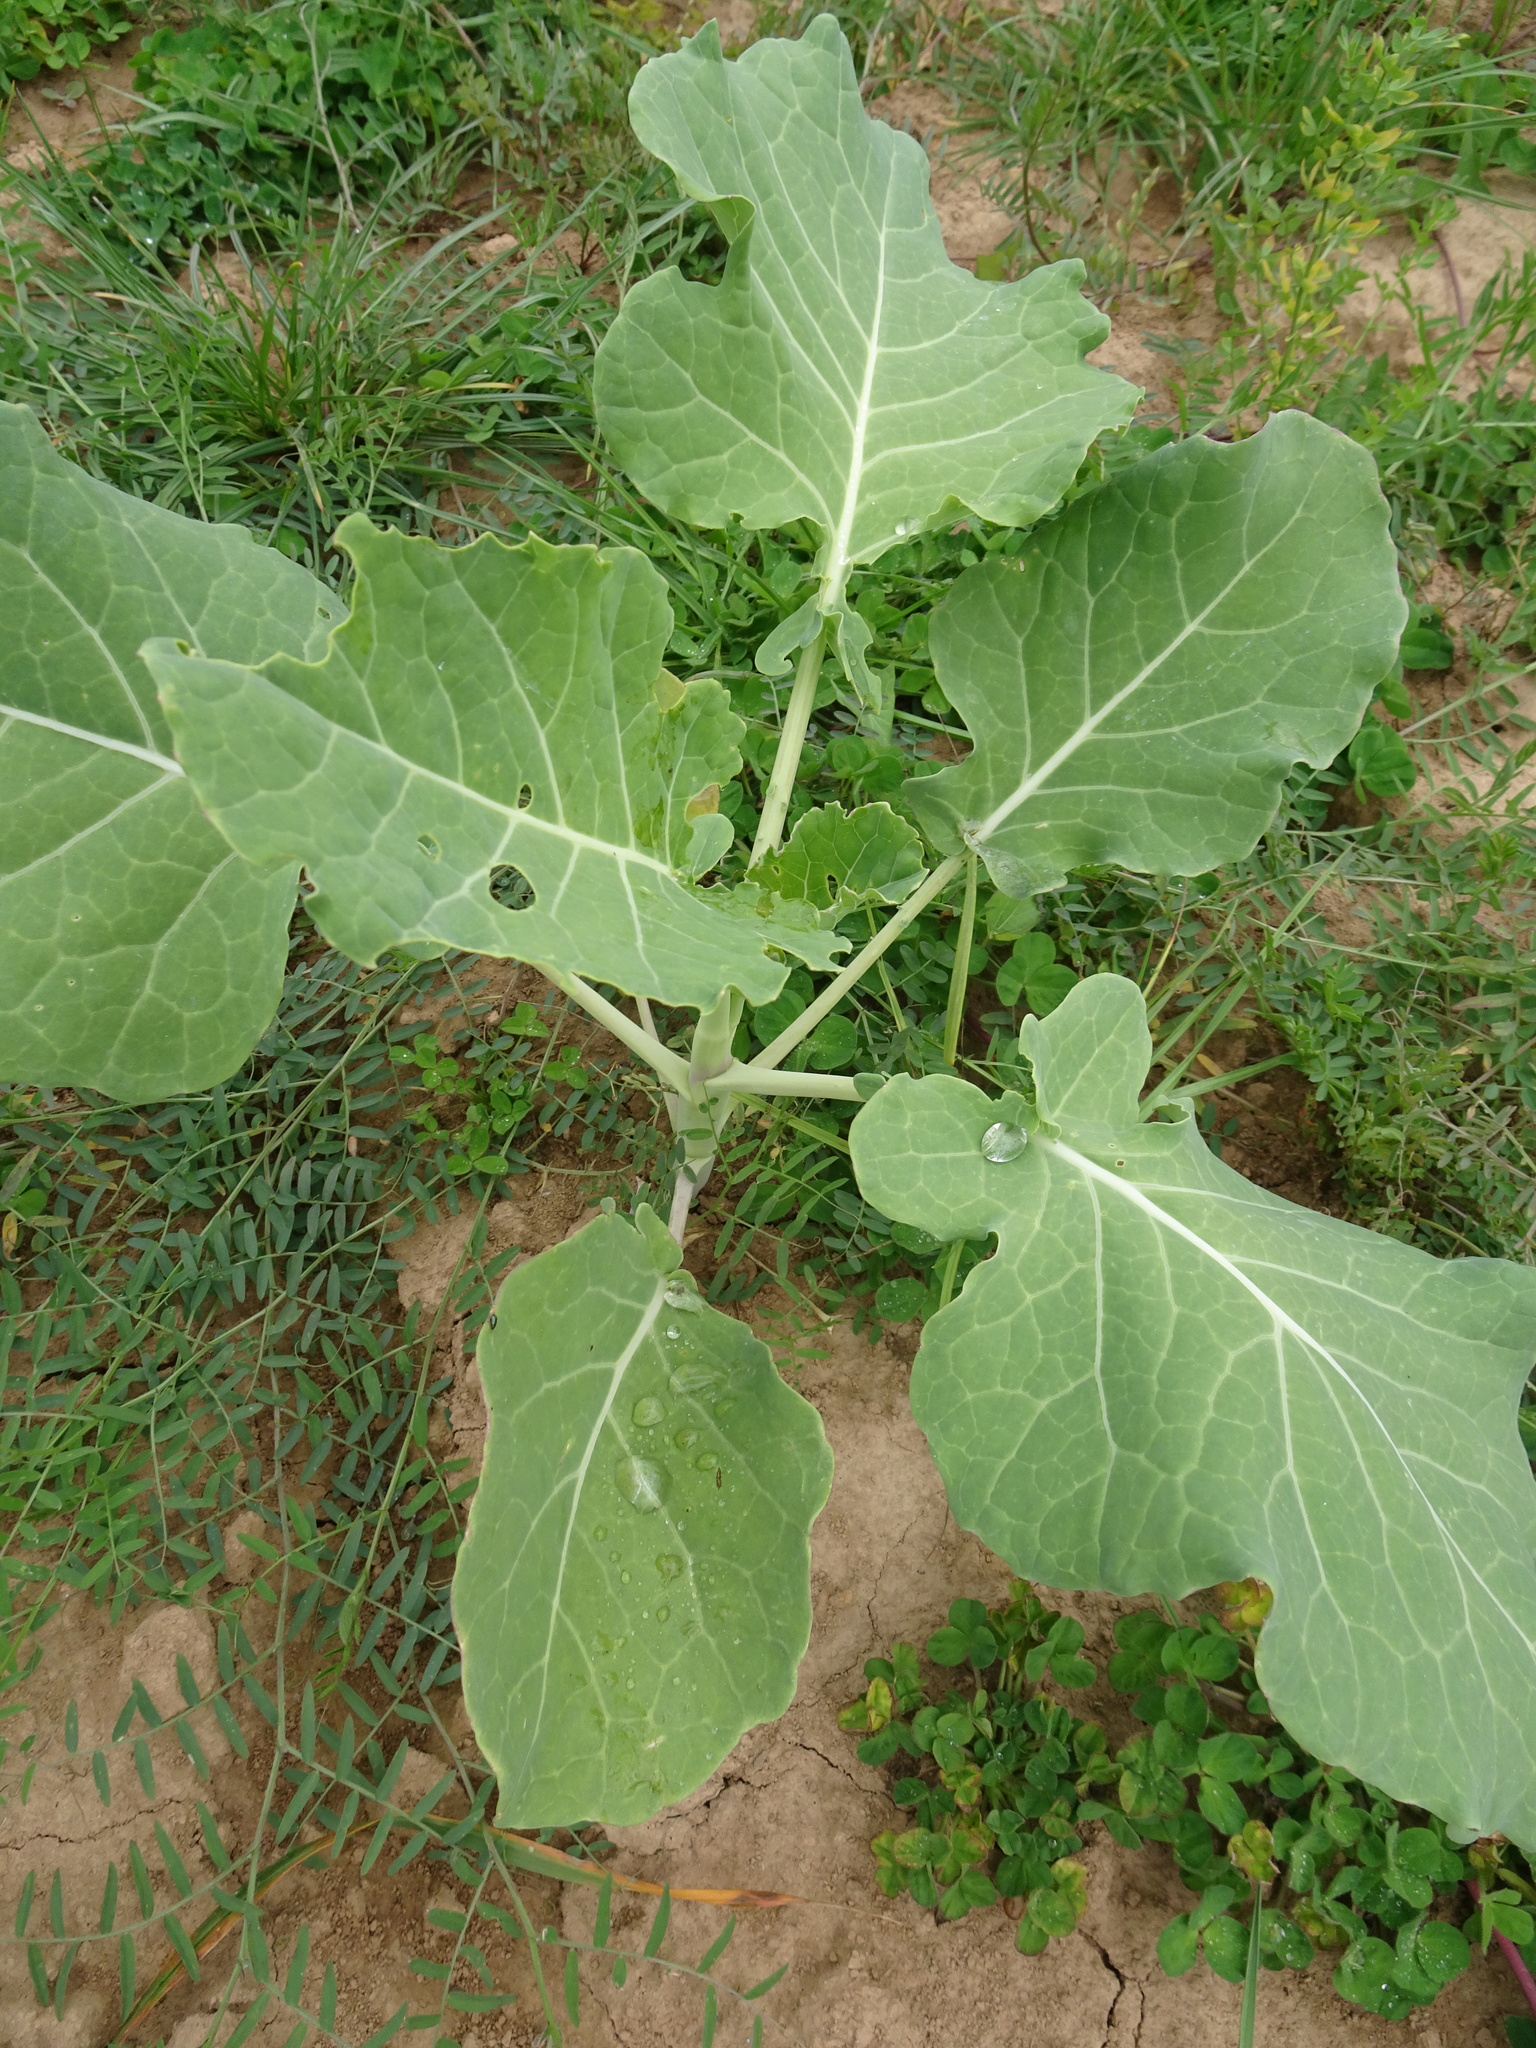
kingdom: Plantae
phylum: Tracheophyta
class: Magnoliopsida
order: Brassicales
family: Brassicaceae
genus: Brassica
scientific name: Brassica oleracea
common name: Cabbage
